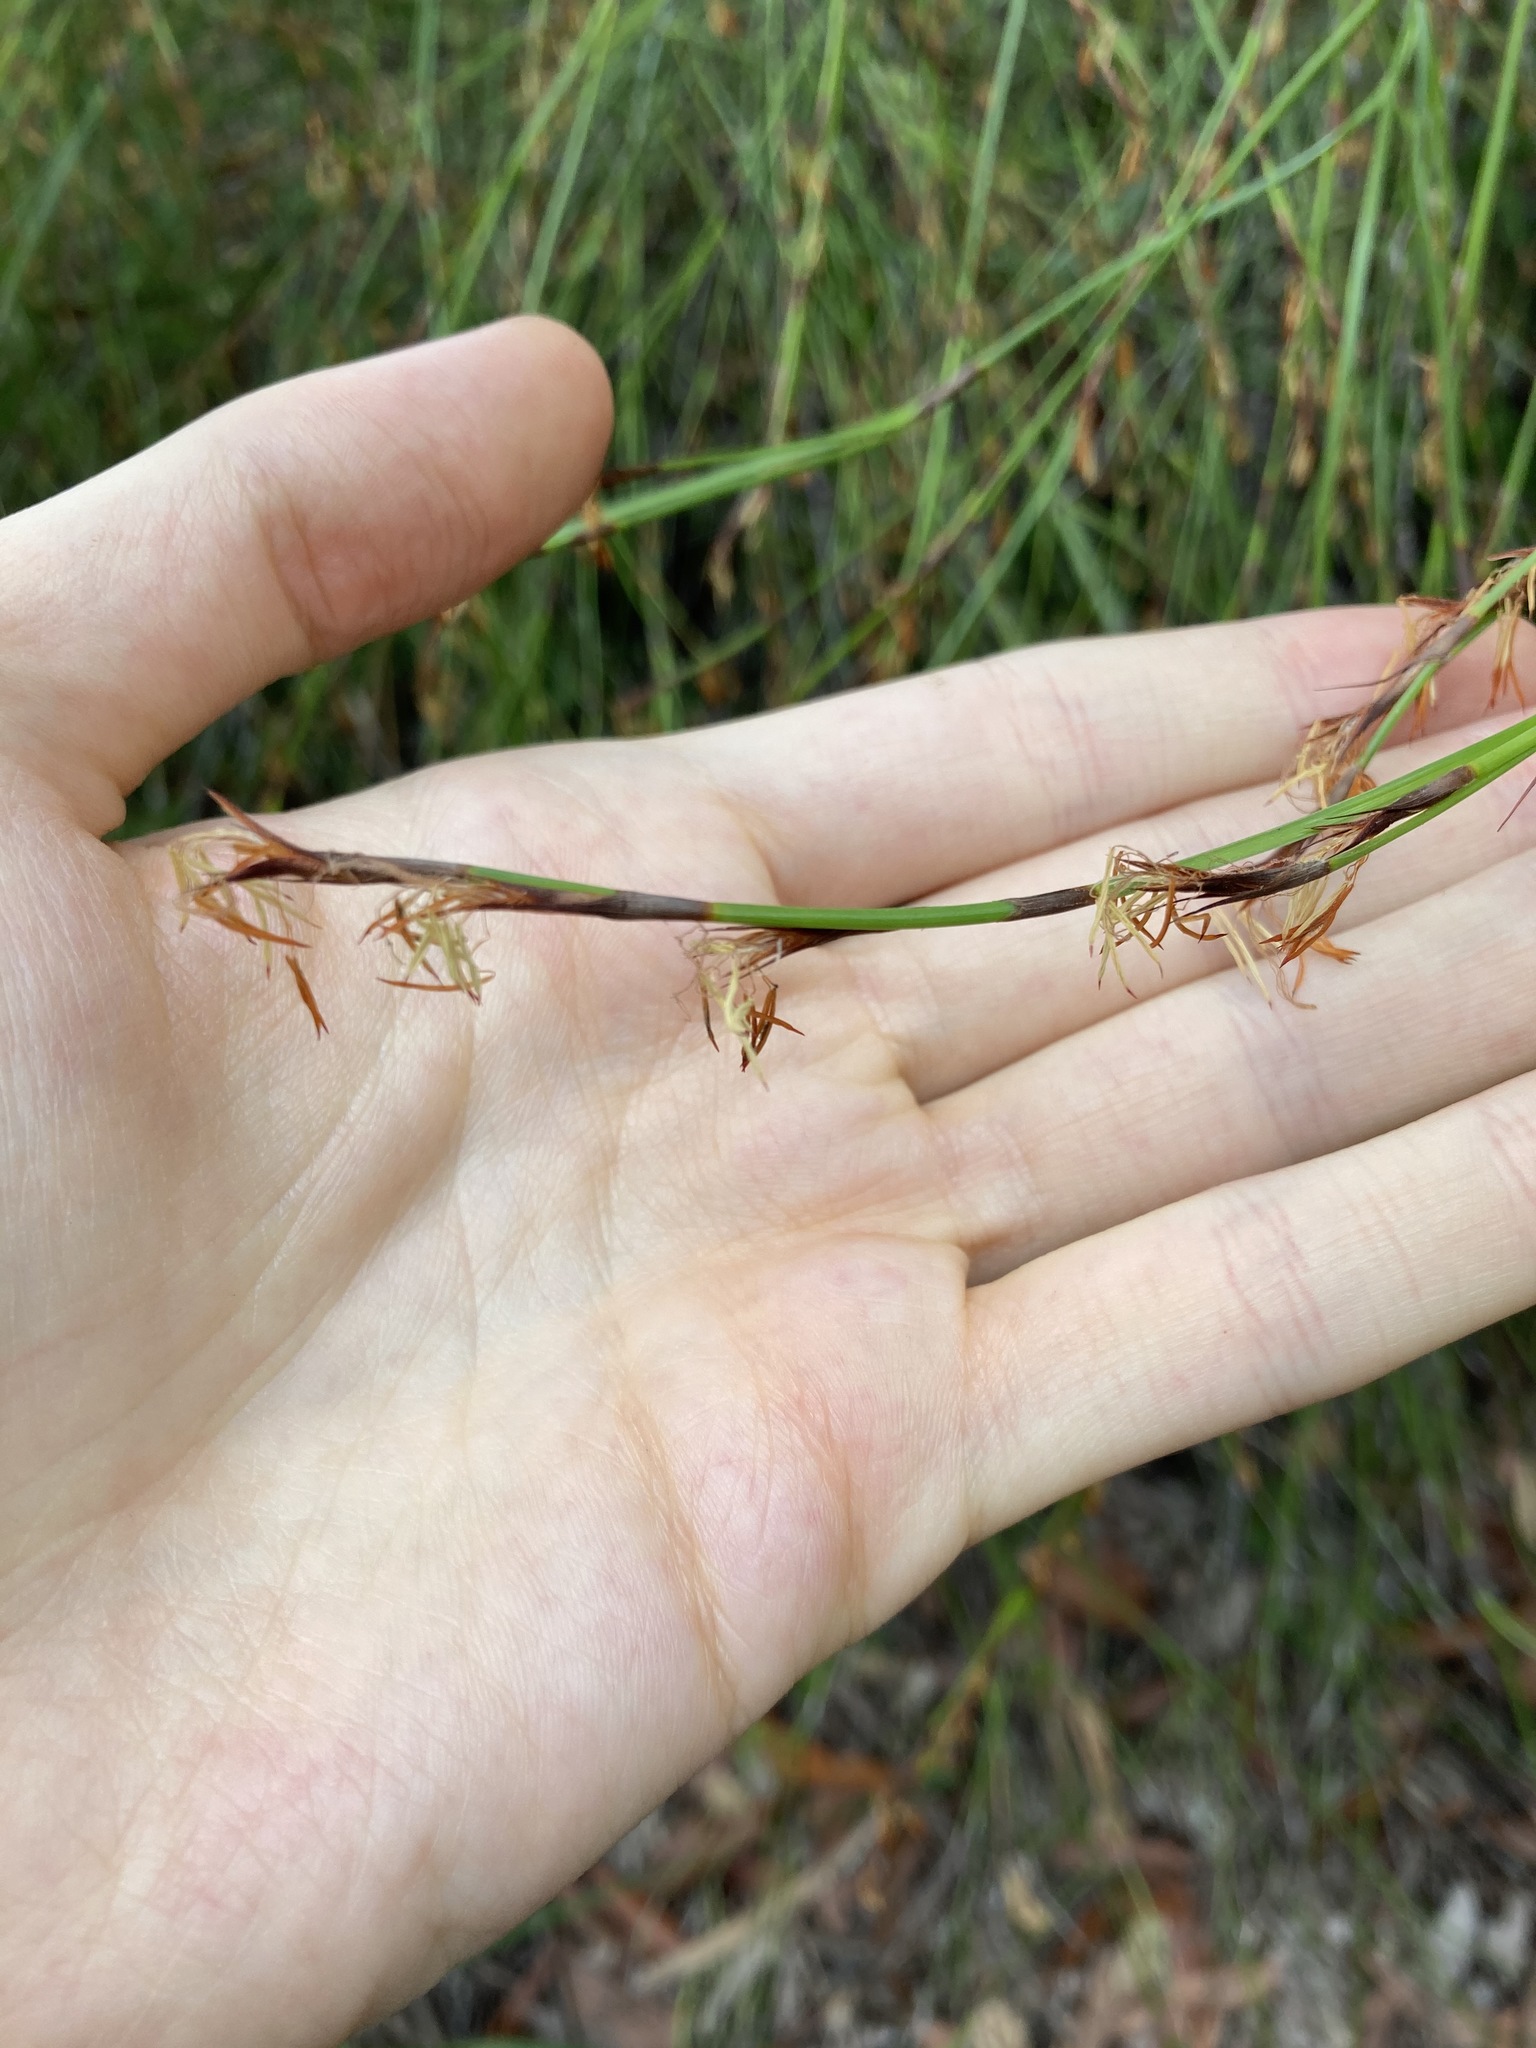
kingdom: Plantae
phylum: Tracheophyta
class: Liliopsida
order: Poales
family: Cyperaceae
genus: Caustis
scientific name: Caustis pentandra
